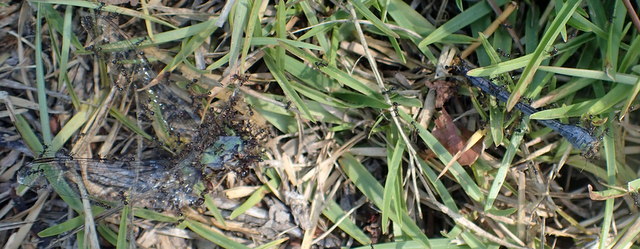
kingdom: Animalia
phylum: Arthropoda
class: Insecta
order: Hymenoptera
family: Formicidae
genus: Pheidole
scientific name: Pheidole obscurithorax
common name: Obscure big-headed ant
